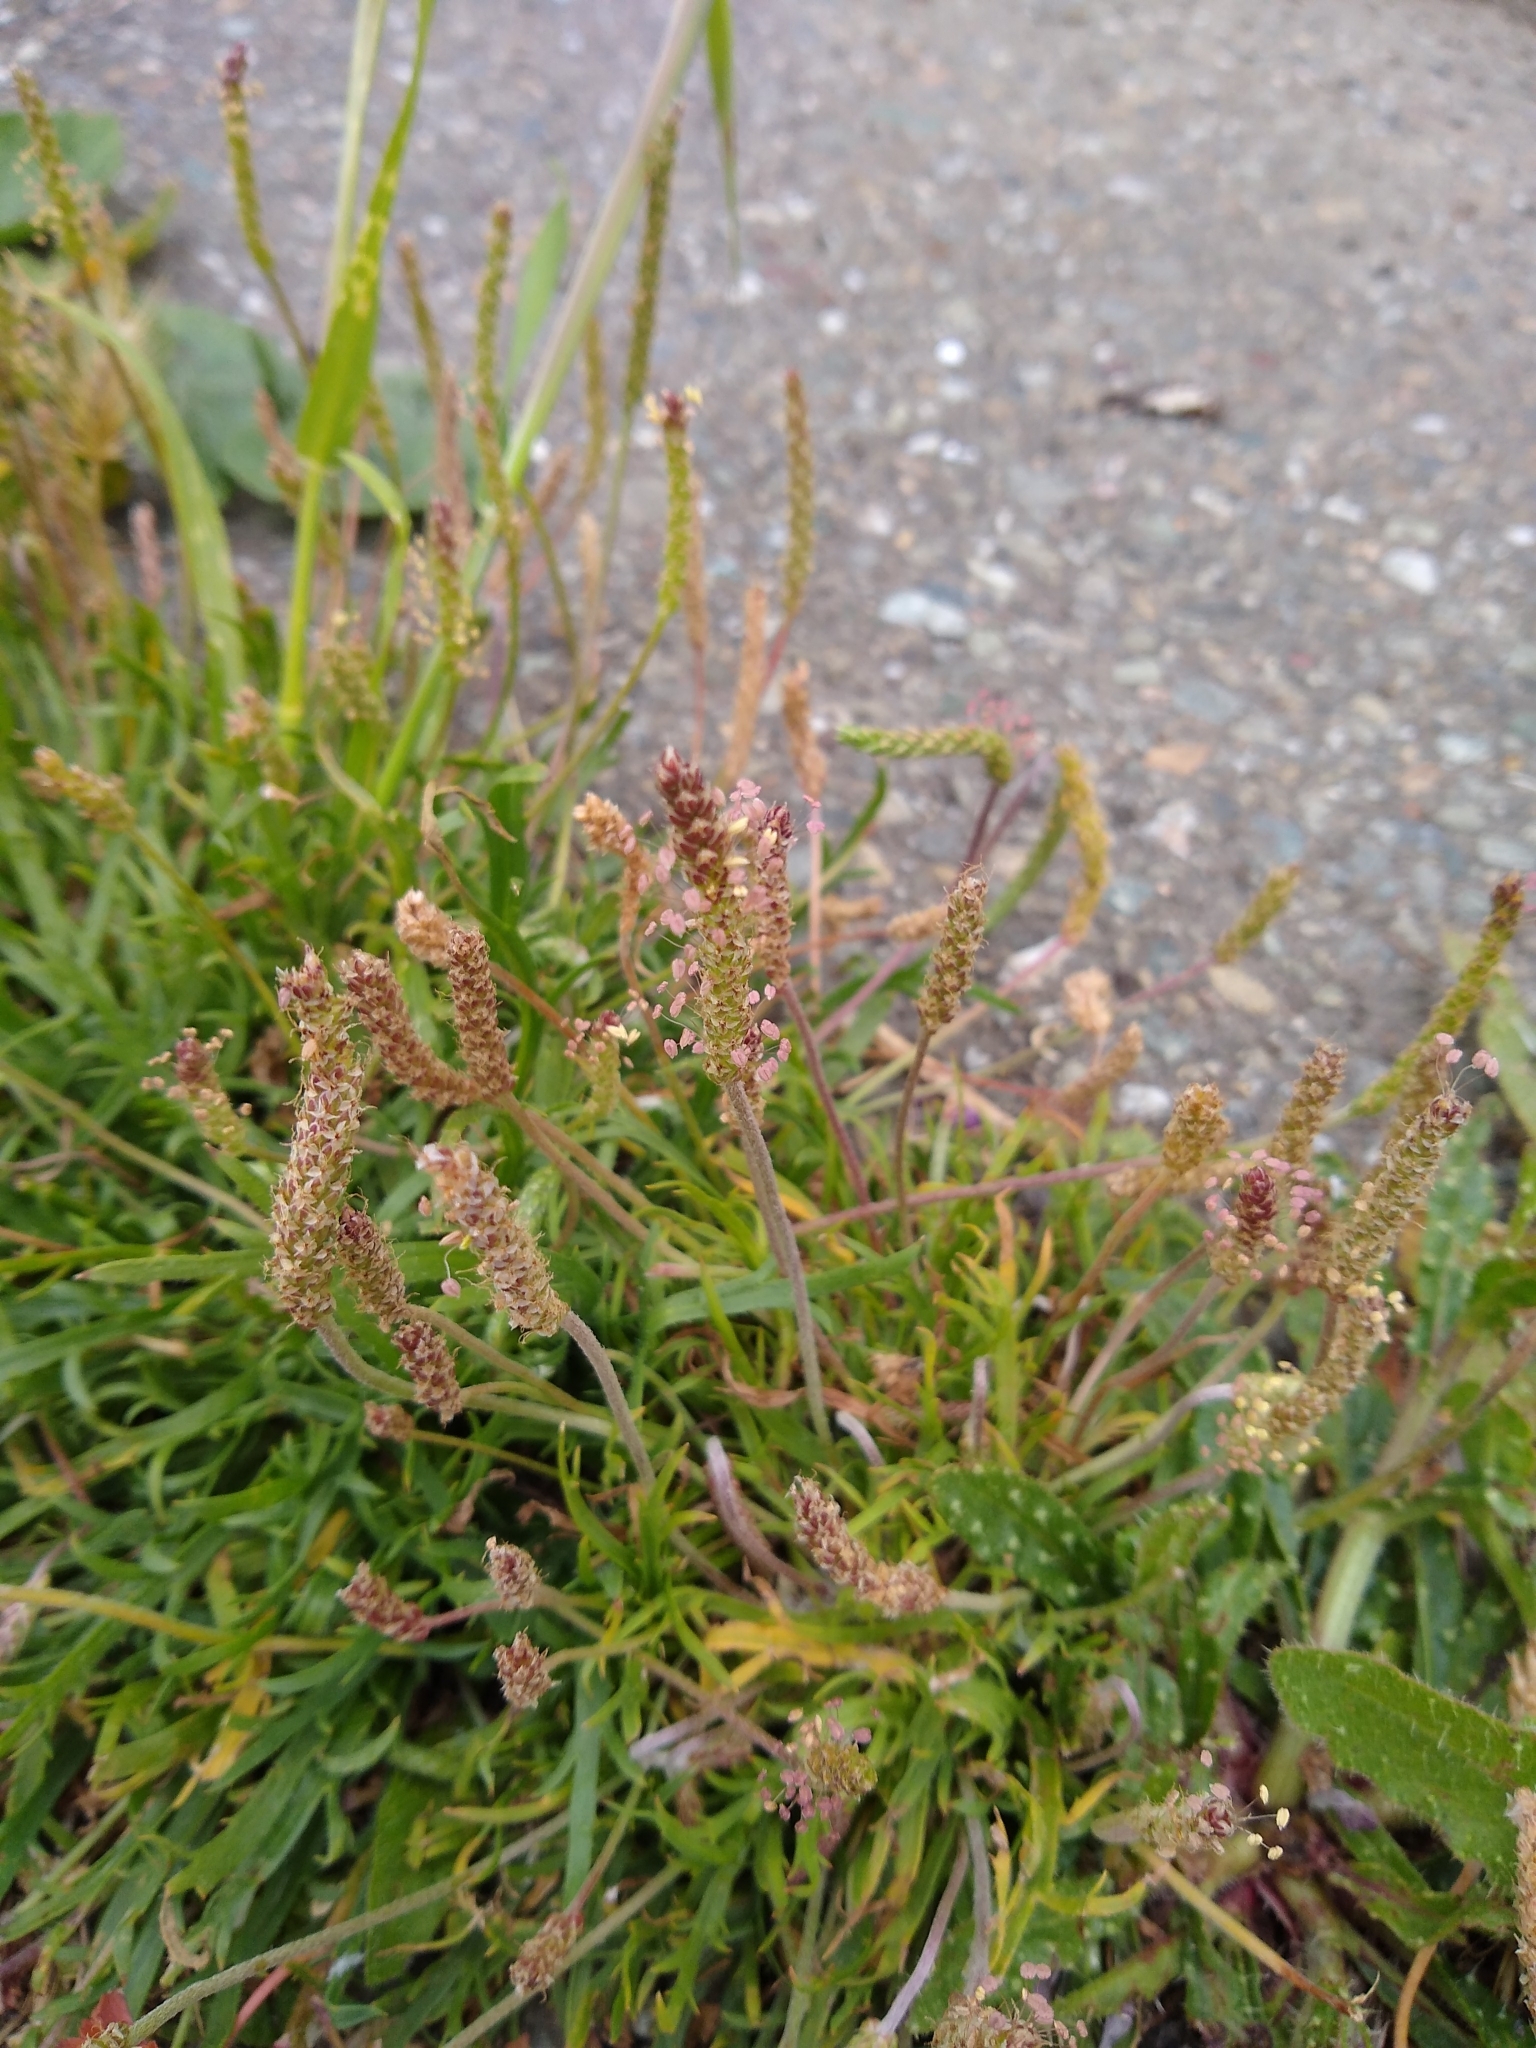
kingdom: Plantae
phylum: Tracheophyta
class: Magnoliopsida
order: Lamiales
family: Plantaginaceae
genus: Plantago
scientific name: Plantago coronopus
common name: Buck's-horn plantain
